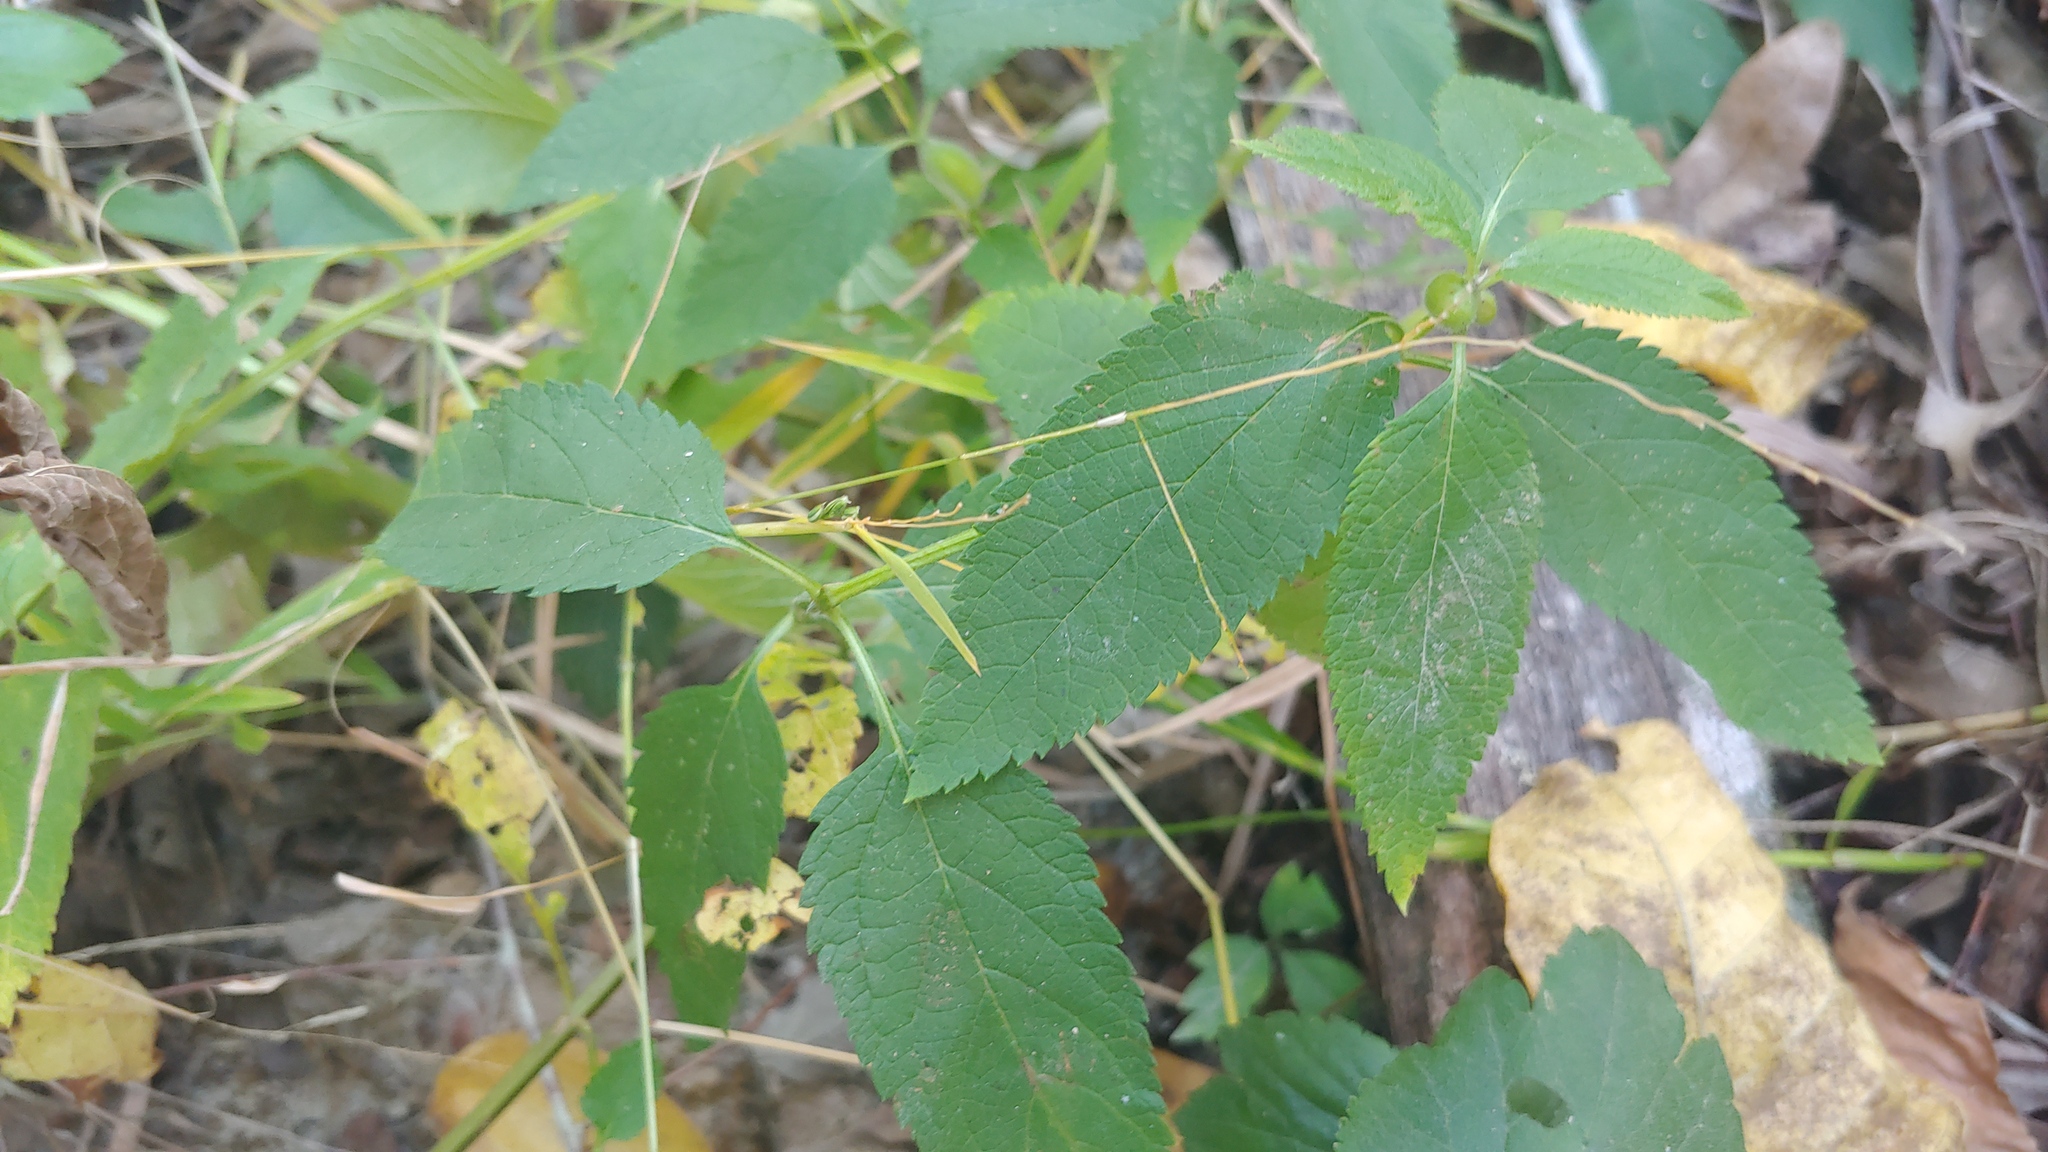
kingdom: Plantae
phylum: Tracheophyta
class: Magnoliopsida
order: Lamiales
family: Lamiaceae
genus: Teucrium
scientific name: Teucrium canadense
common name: American germander
